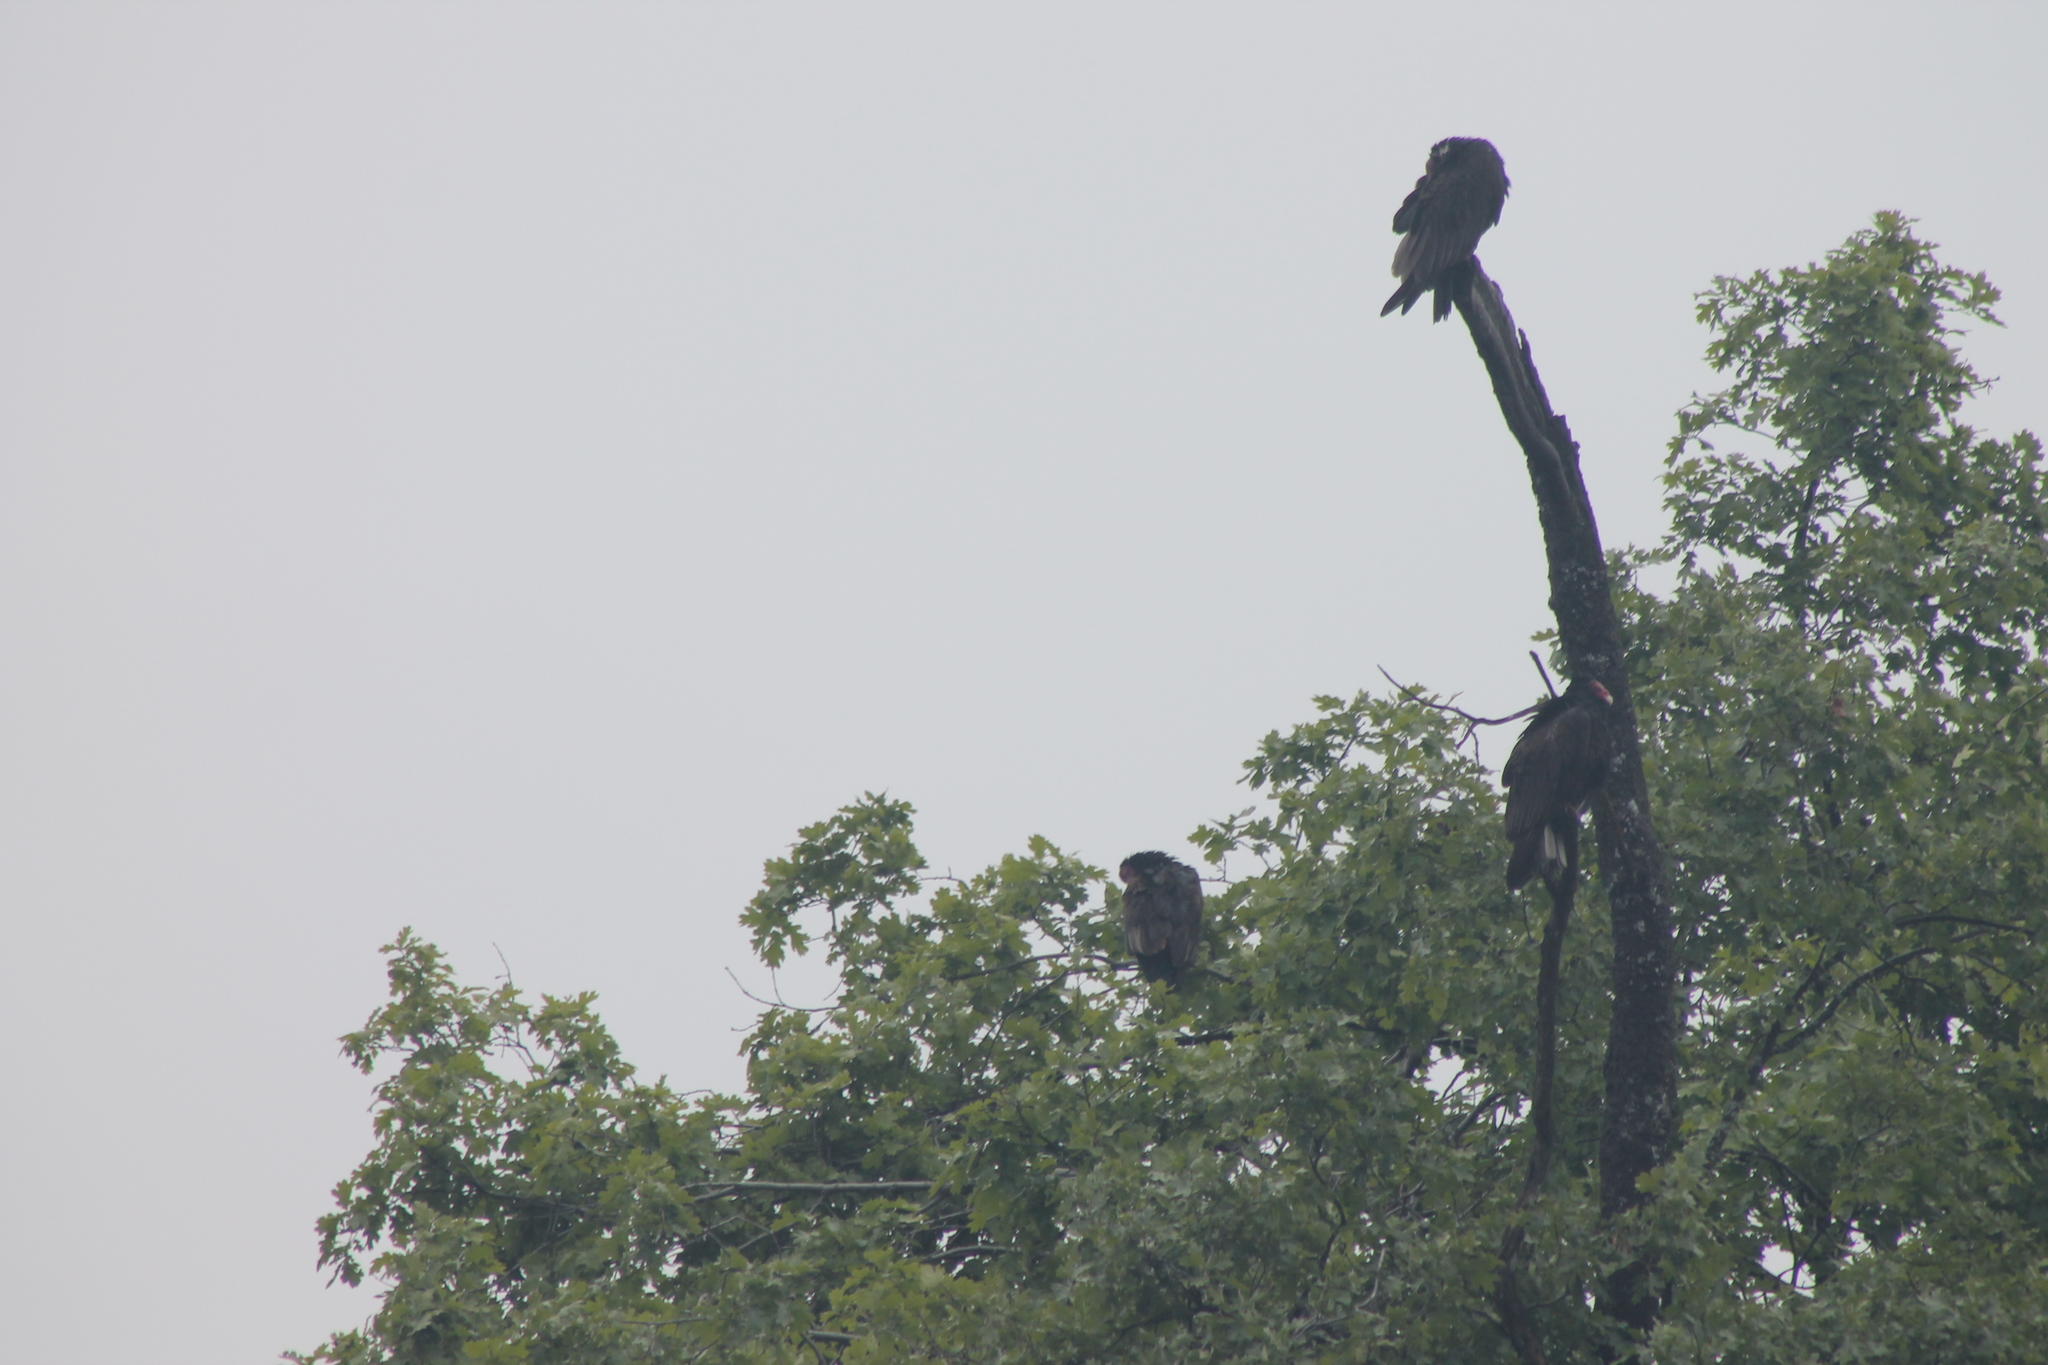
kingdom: Animalia
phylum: Chordata
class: Aves
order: Accipitriformes
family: Cathartidae
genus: Cathartes
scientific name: Cathartes aura
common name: Turkey vulture
